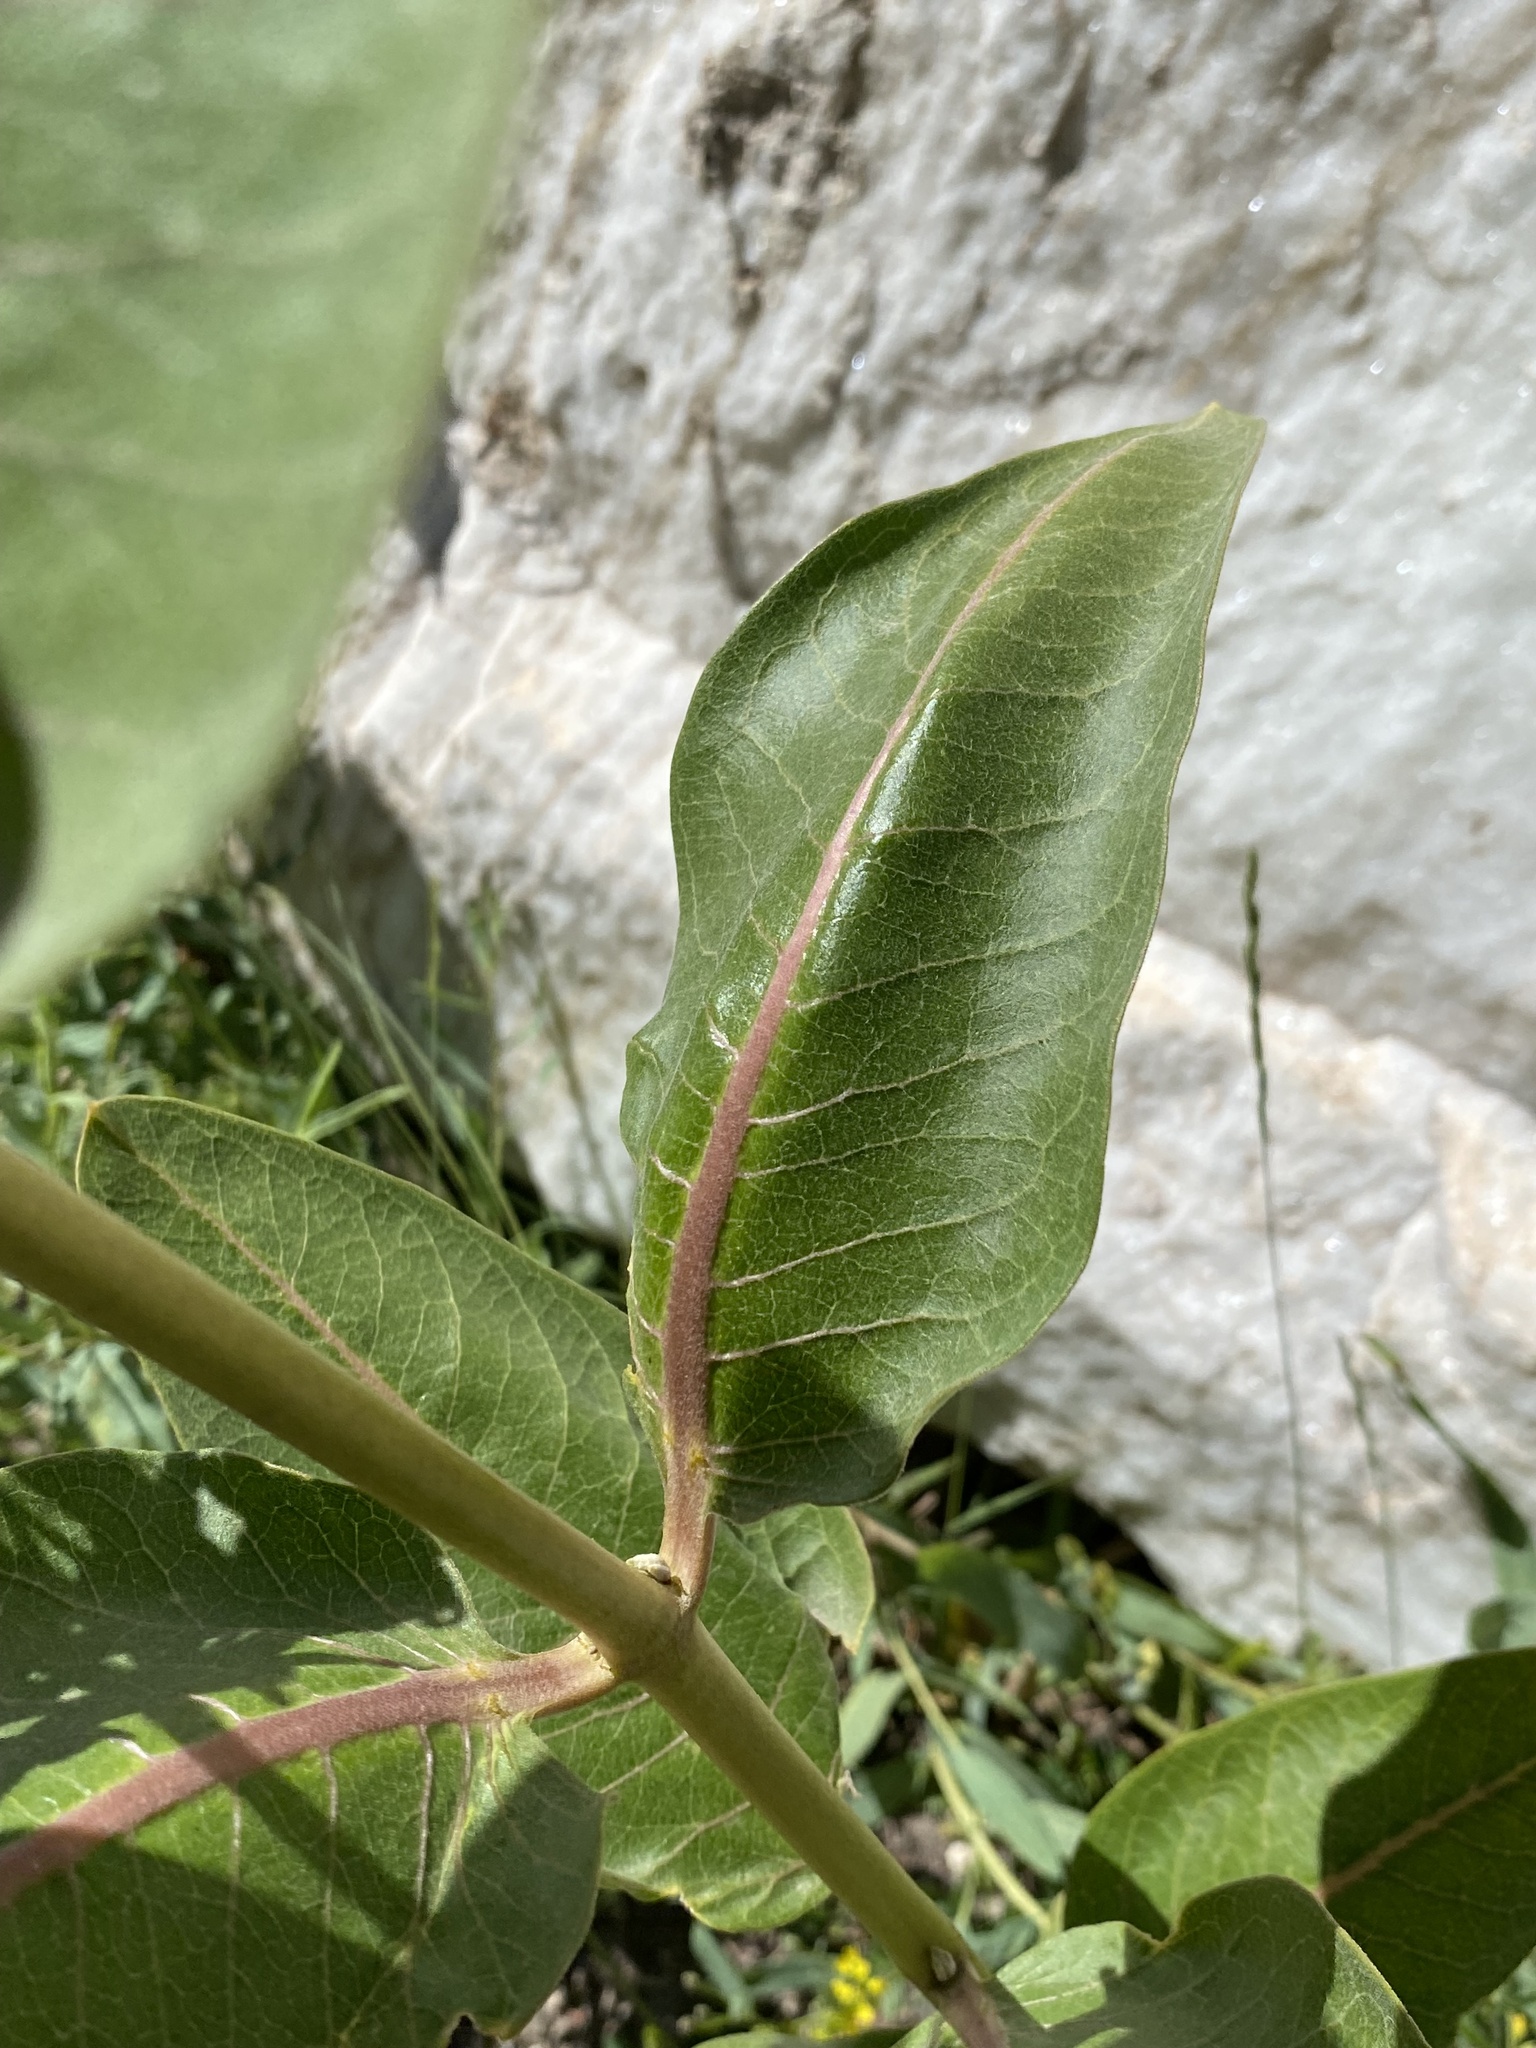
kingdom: Plantae
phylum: Tracheophyta
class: Magnoliopsida
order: Gentianales
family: Apocynaceae
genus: Asclepias
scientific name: Asclepias speciosa
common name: Showy milkweed
